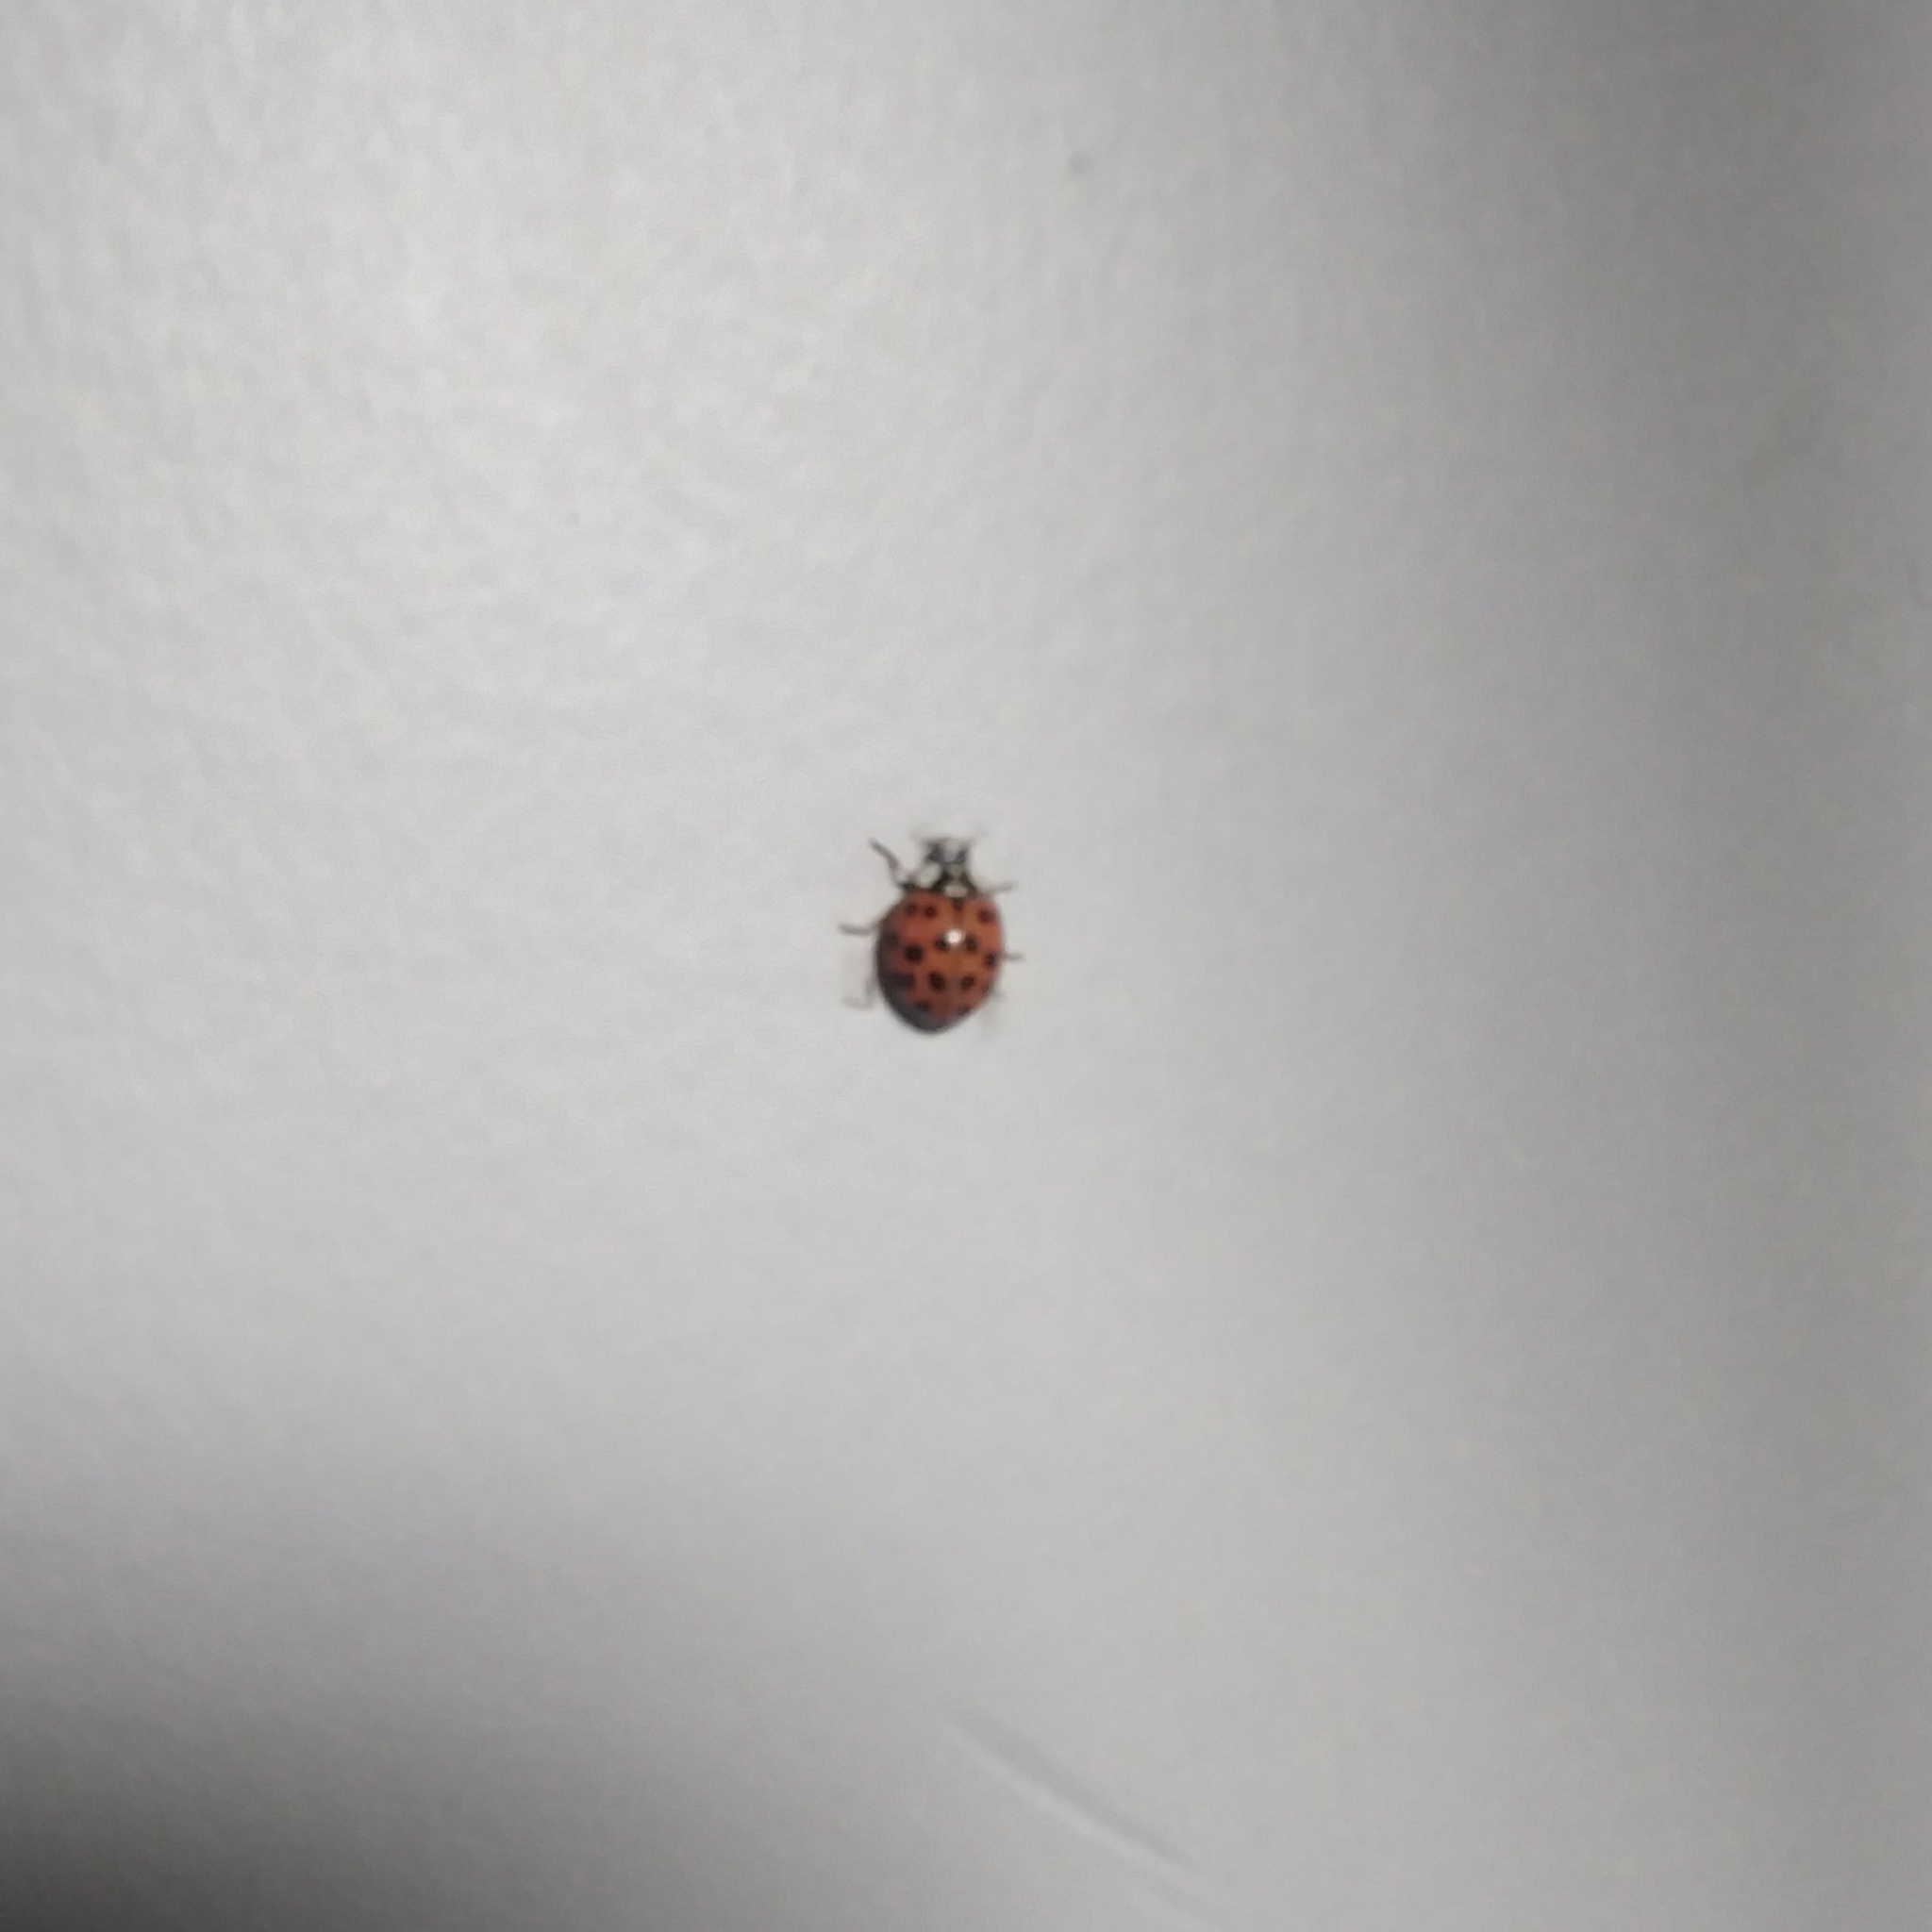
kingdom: Animalia
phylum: Arthropoda
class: Insecta
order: Coleoptera
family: Coccinellidae
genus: Harmonia
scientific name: Harmonia axyridis
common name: Harlequin ladybird
